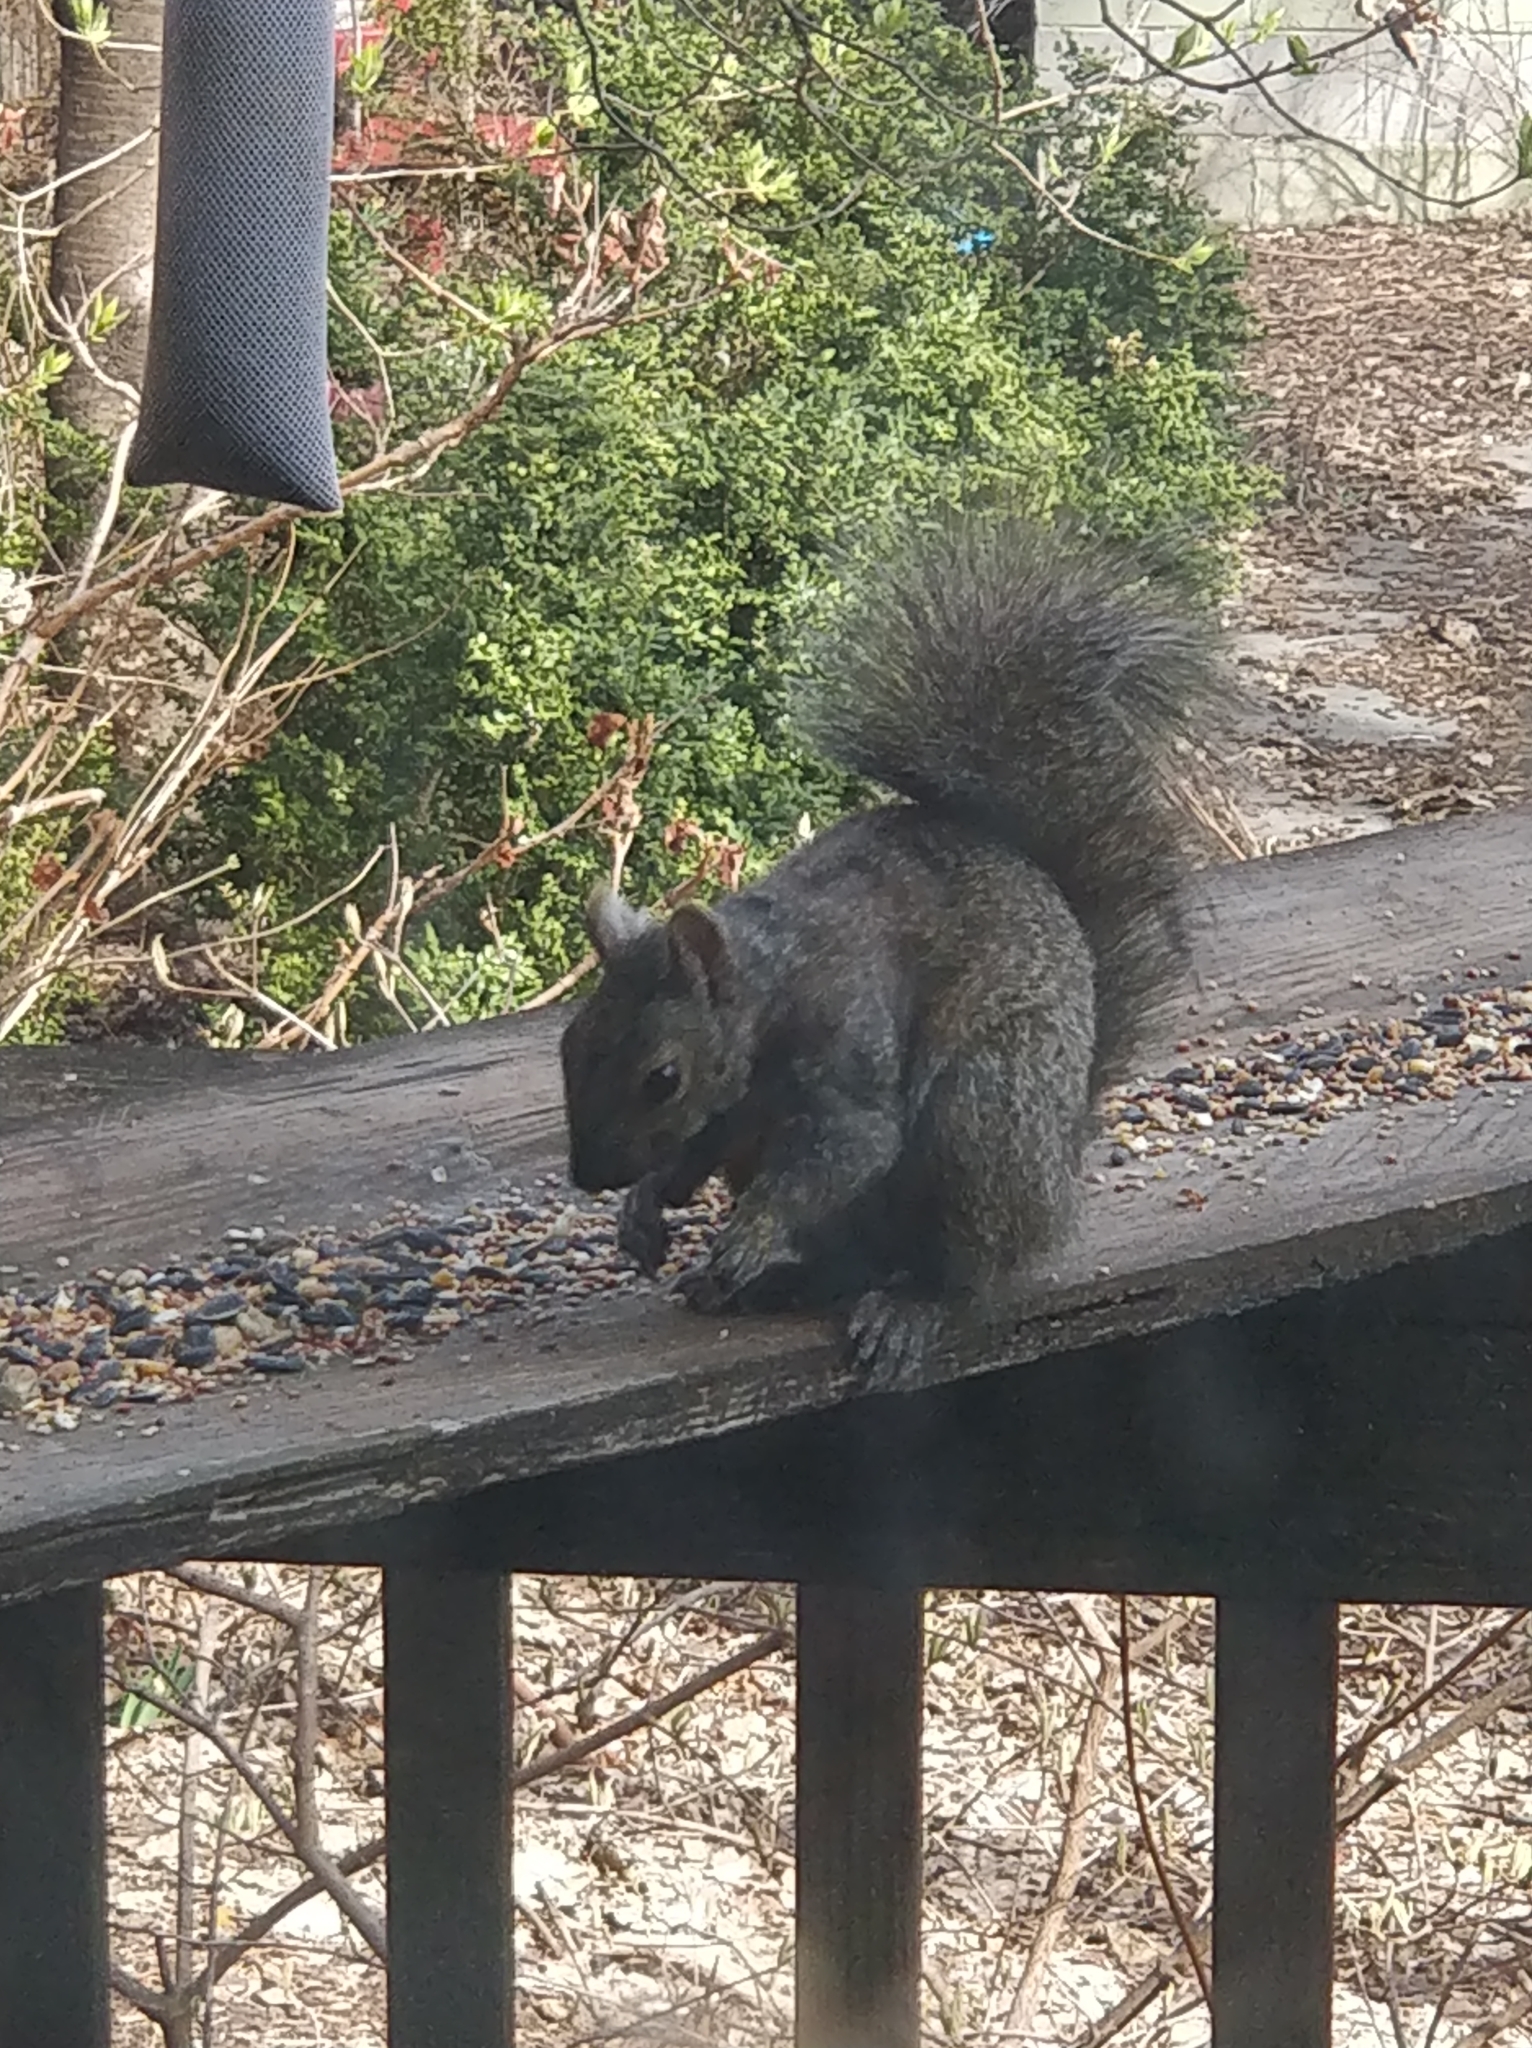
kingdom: Animalia
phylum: Chordata
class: Mammalia
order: Rodentia
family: Sciuridae
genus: Sciurus
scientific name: Sciurus carolinensis
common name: Eastern gray squirrel
